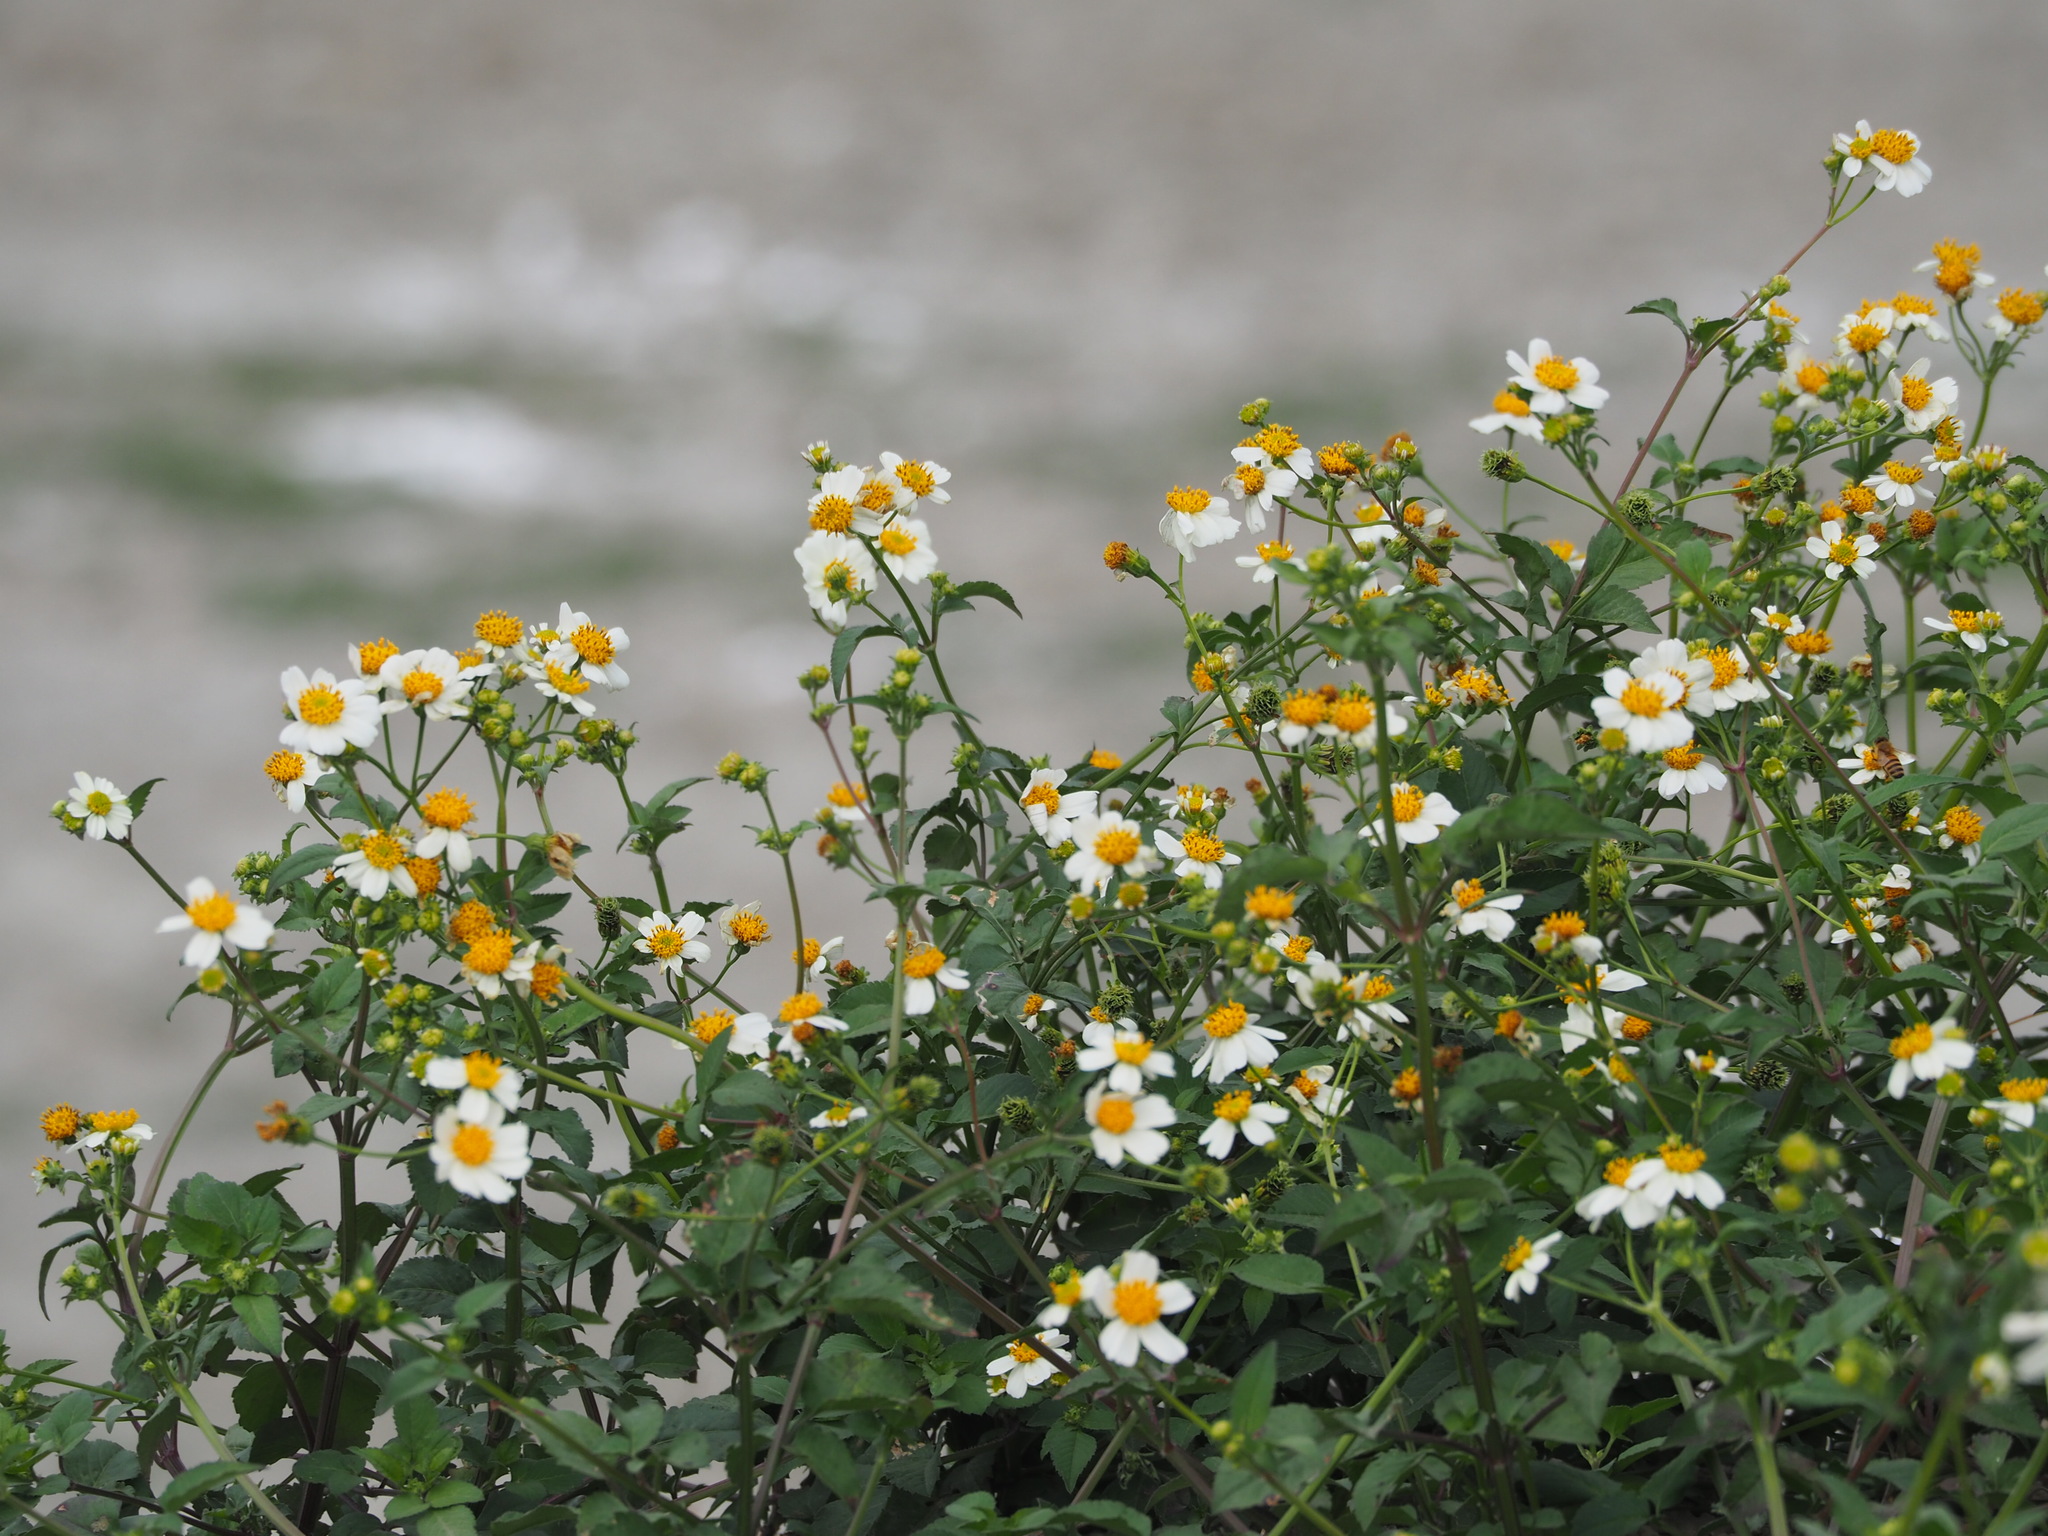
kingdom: Plantae
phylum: Tracheophyta
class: Magnoliopsida
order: Asterales
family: Asteraceae
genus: Bidens
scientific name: Bidens alba
